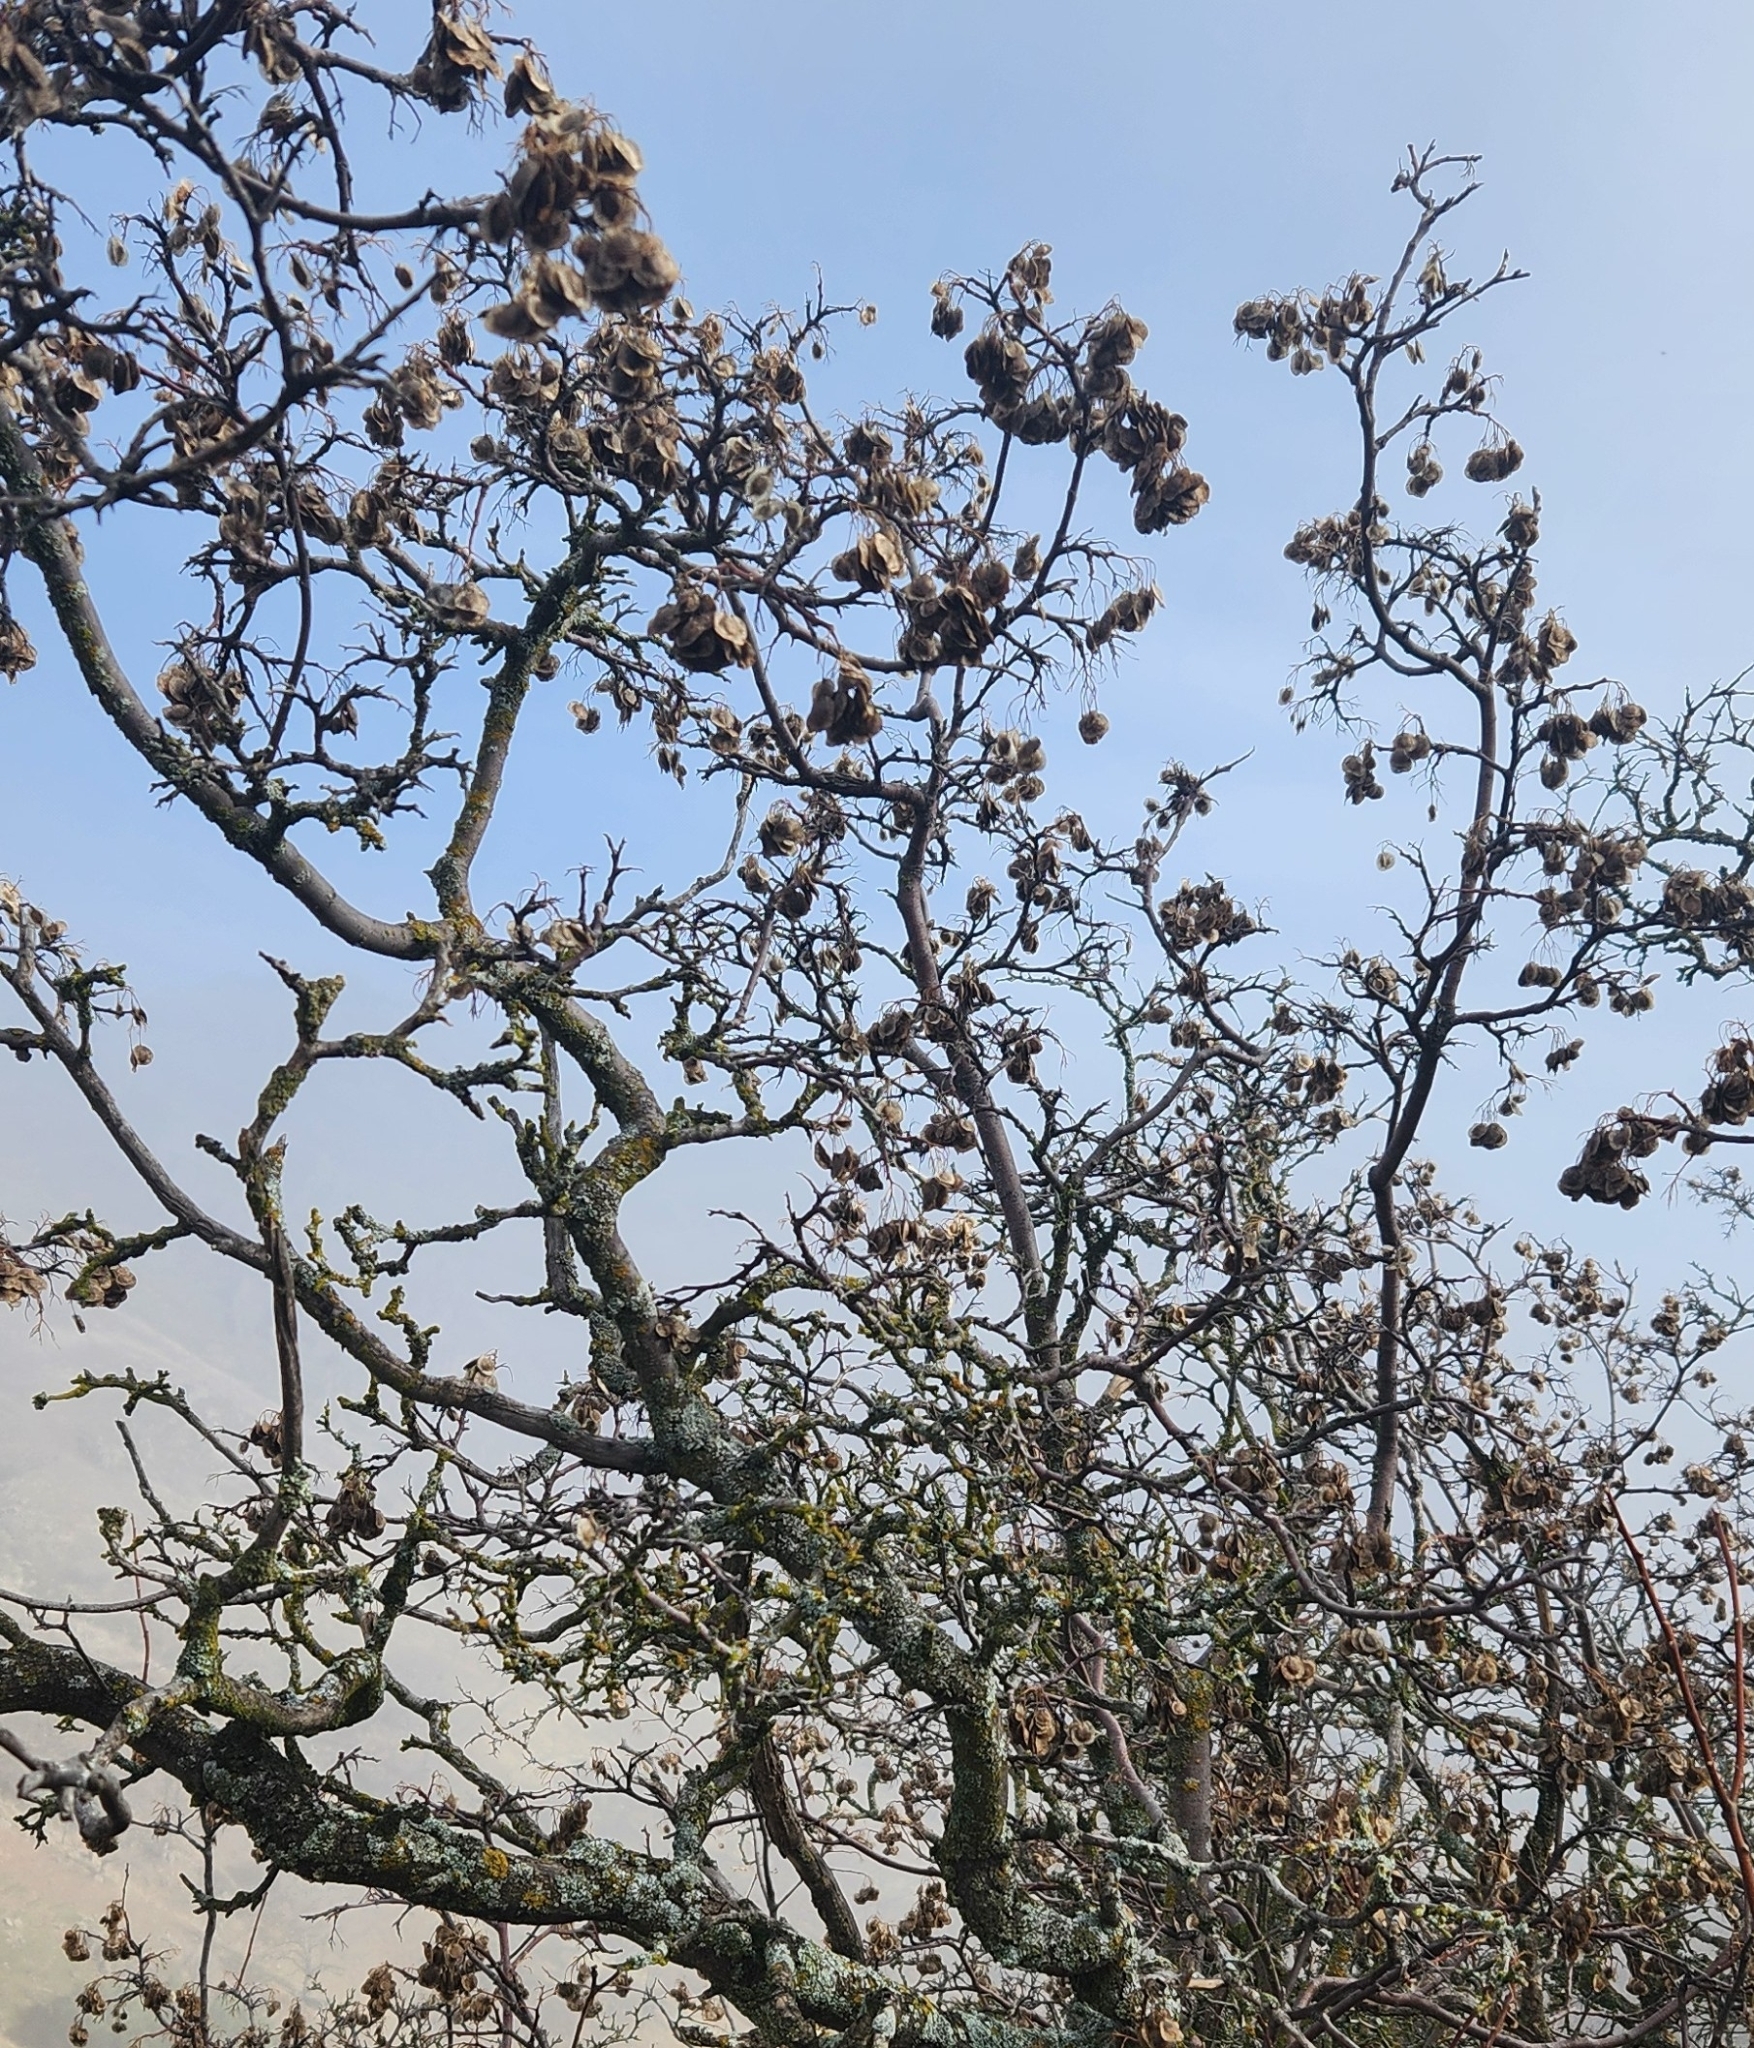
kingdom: Plantae
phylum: Tracheophyta
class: Magnoliopsida
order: Sapindales
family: Rutaceae
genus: Ptelea
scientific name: Ptelea crenulata
